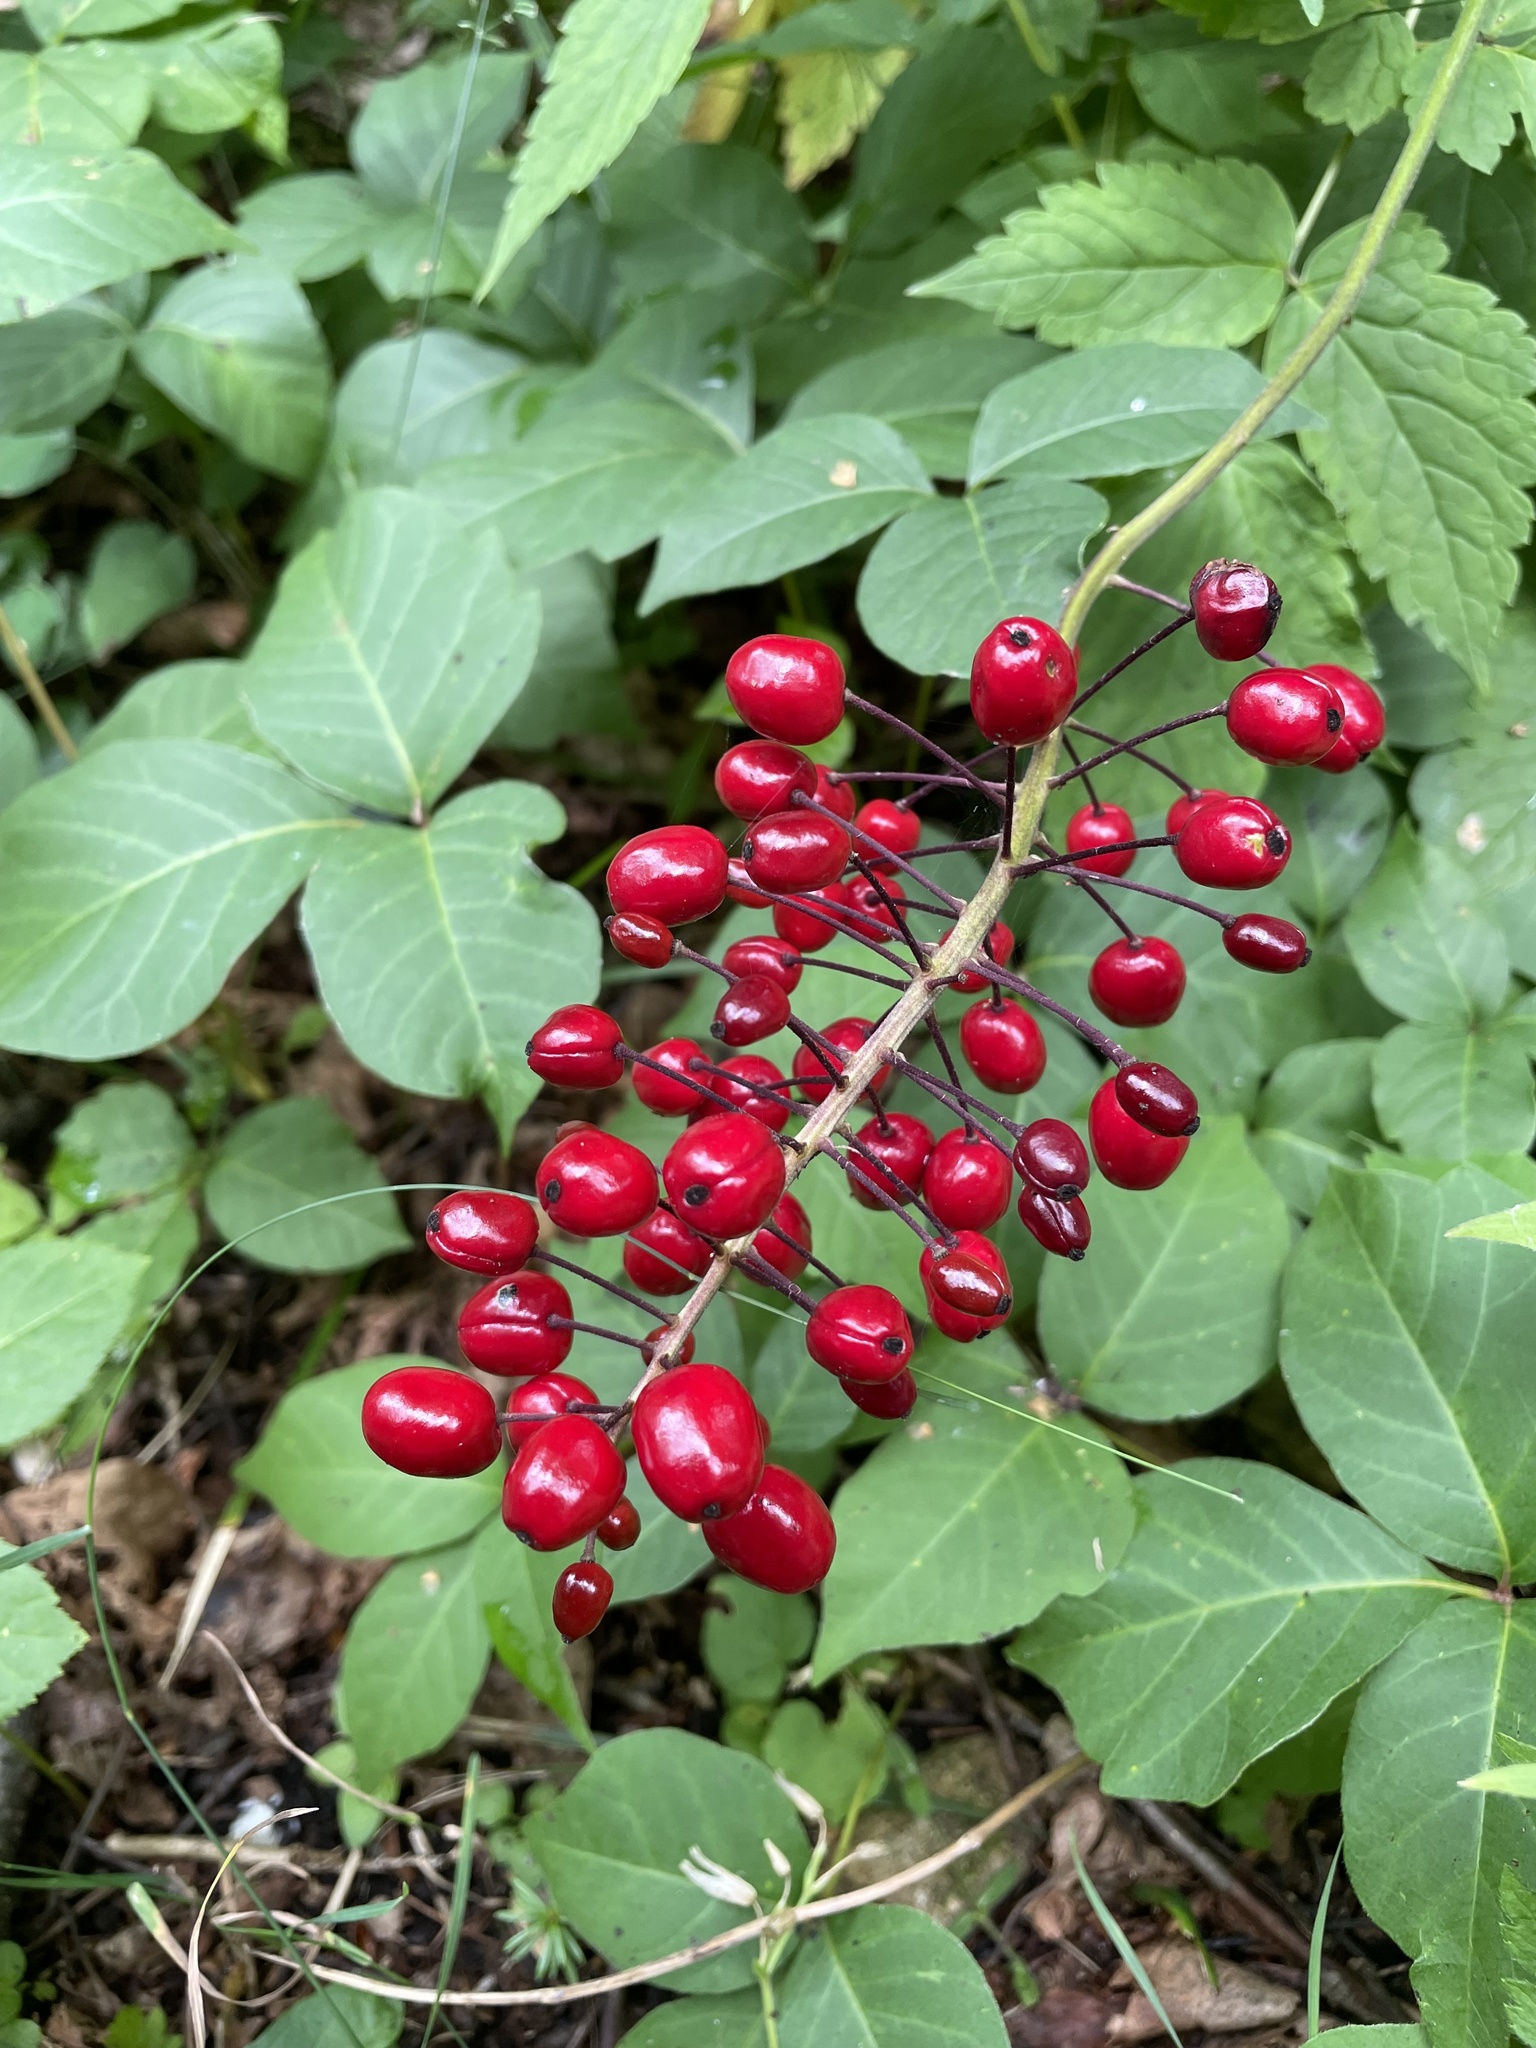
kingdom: Plantae
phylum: Tracheophyta
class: Magnoliopsida
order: Ranunculales
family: Ranunculaceae
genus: Actaea
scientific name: Actaea rubra
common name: Red baneberry
